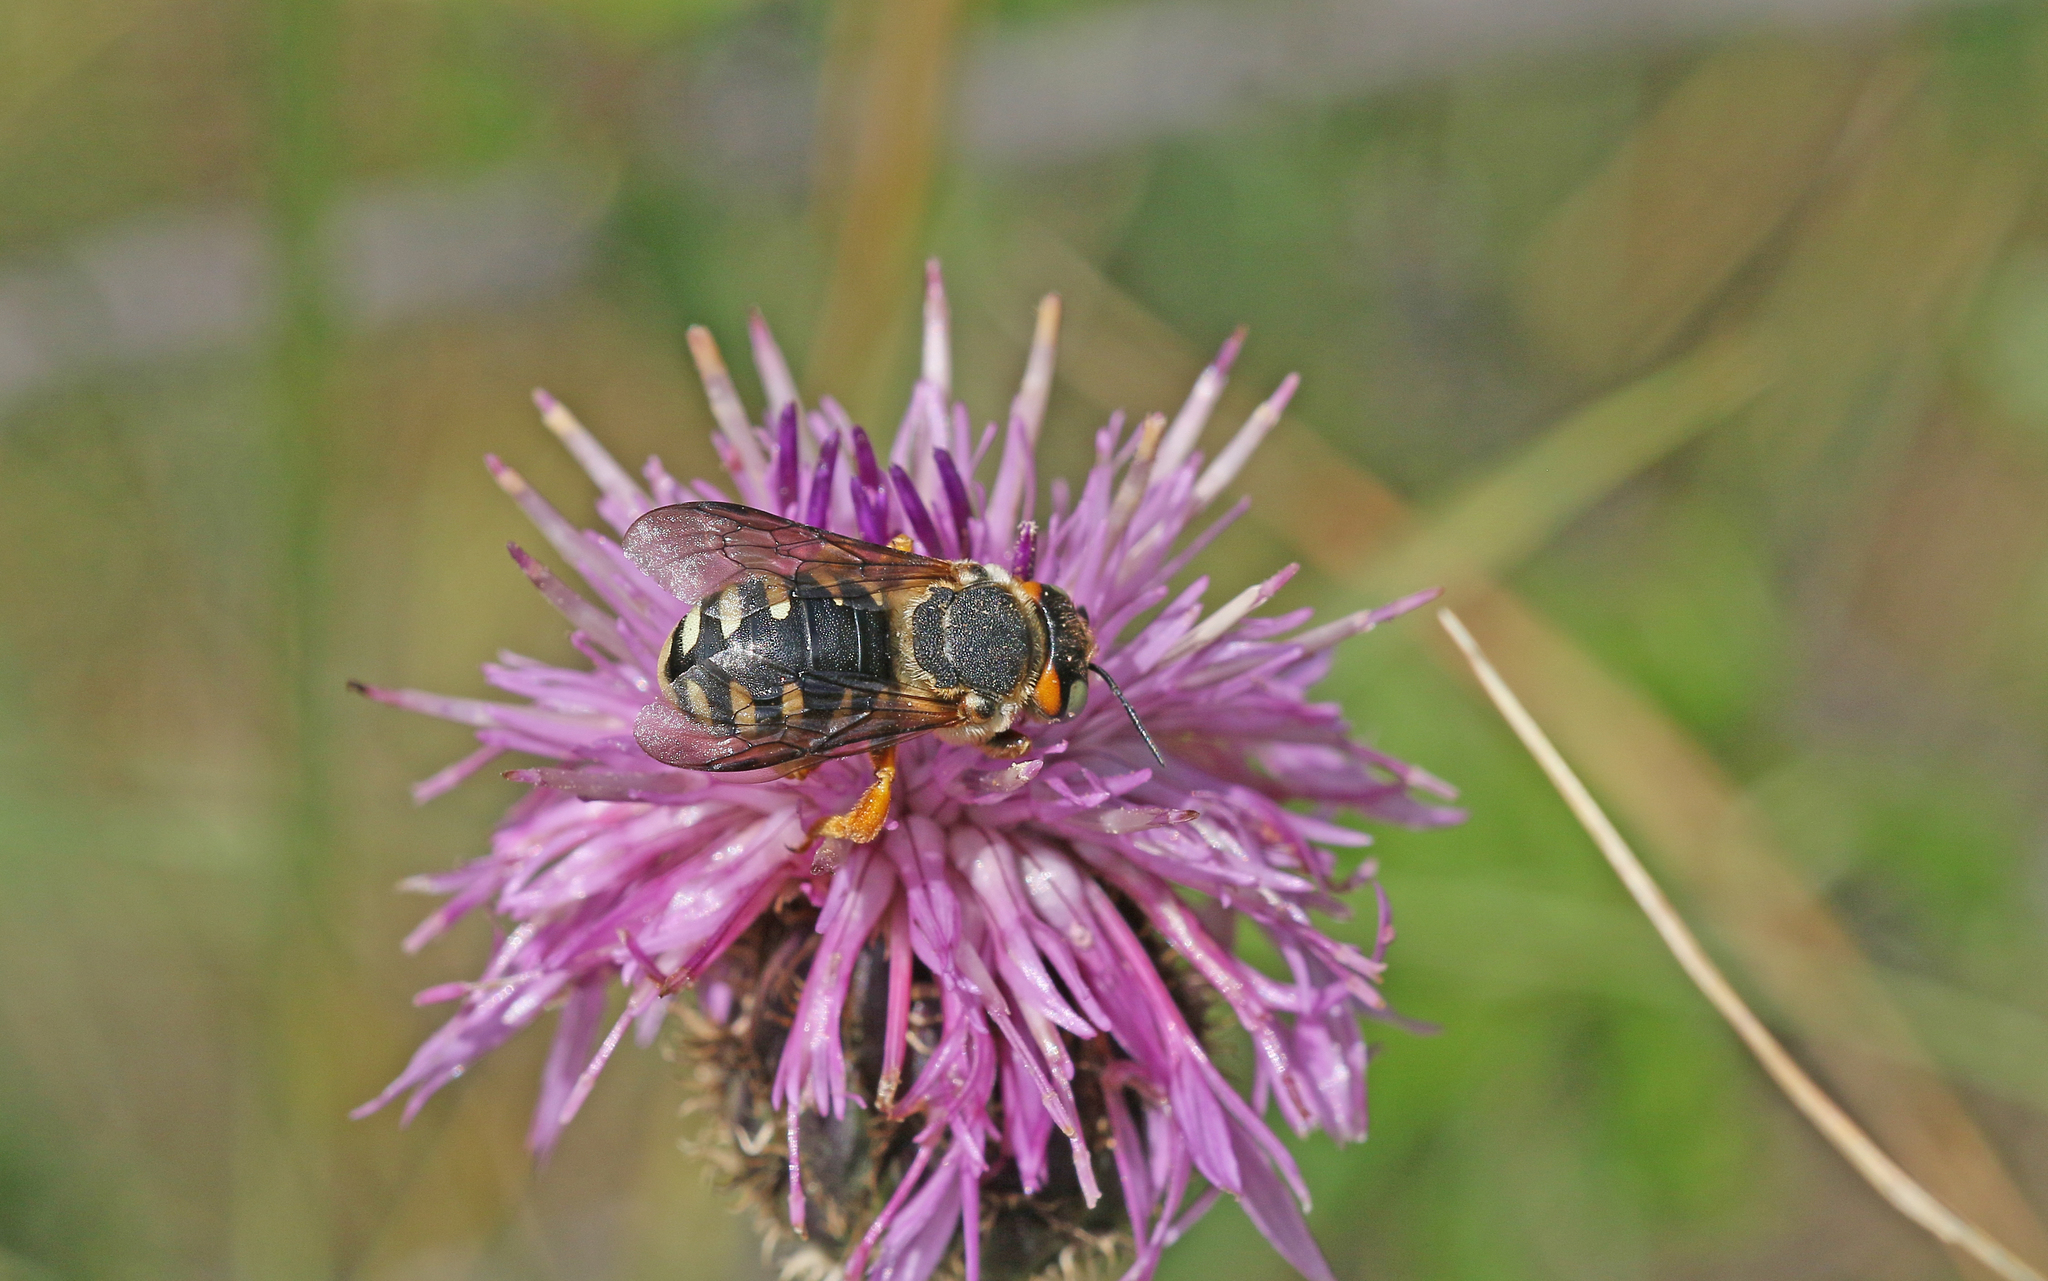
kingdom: Animalia
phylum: Arthropoda
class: Insecta
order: Hymenoptera
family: Megachilidae
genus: Icteranthidium
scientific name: Icteranthidium laterale
